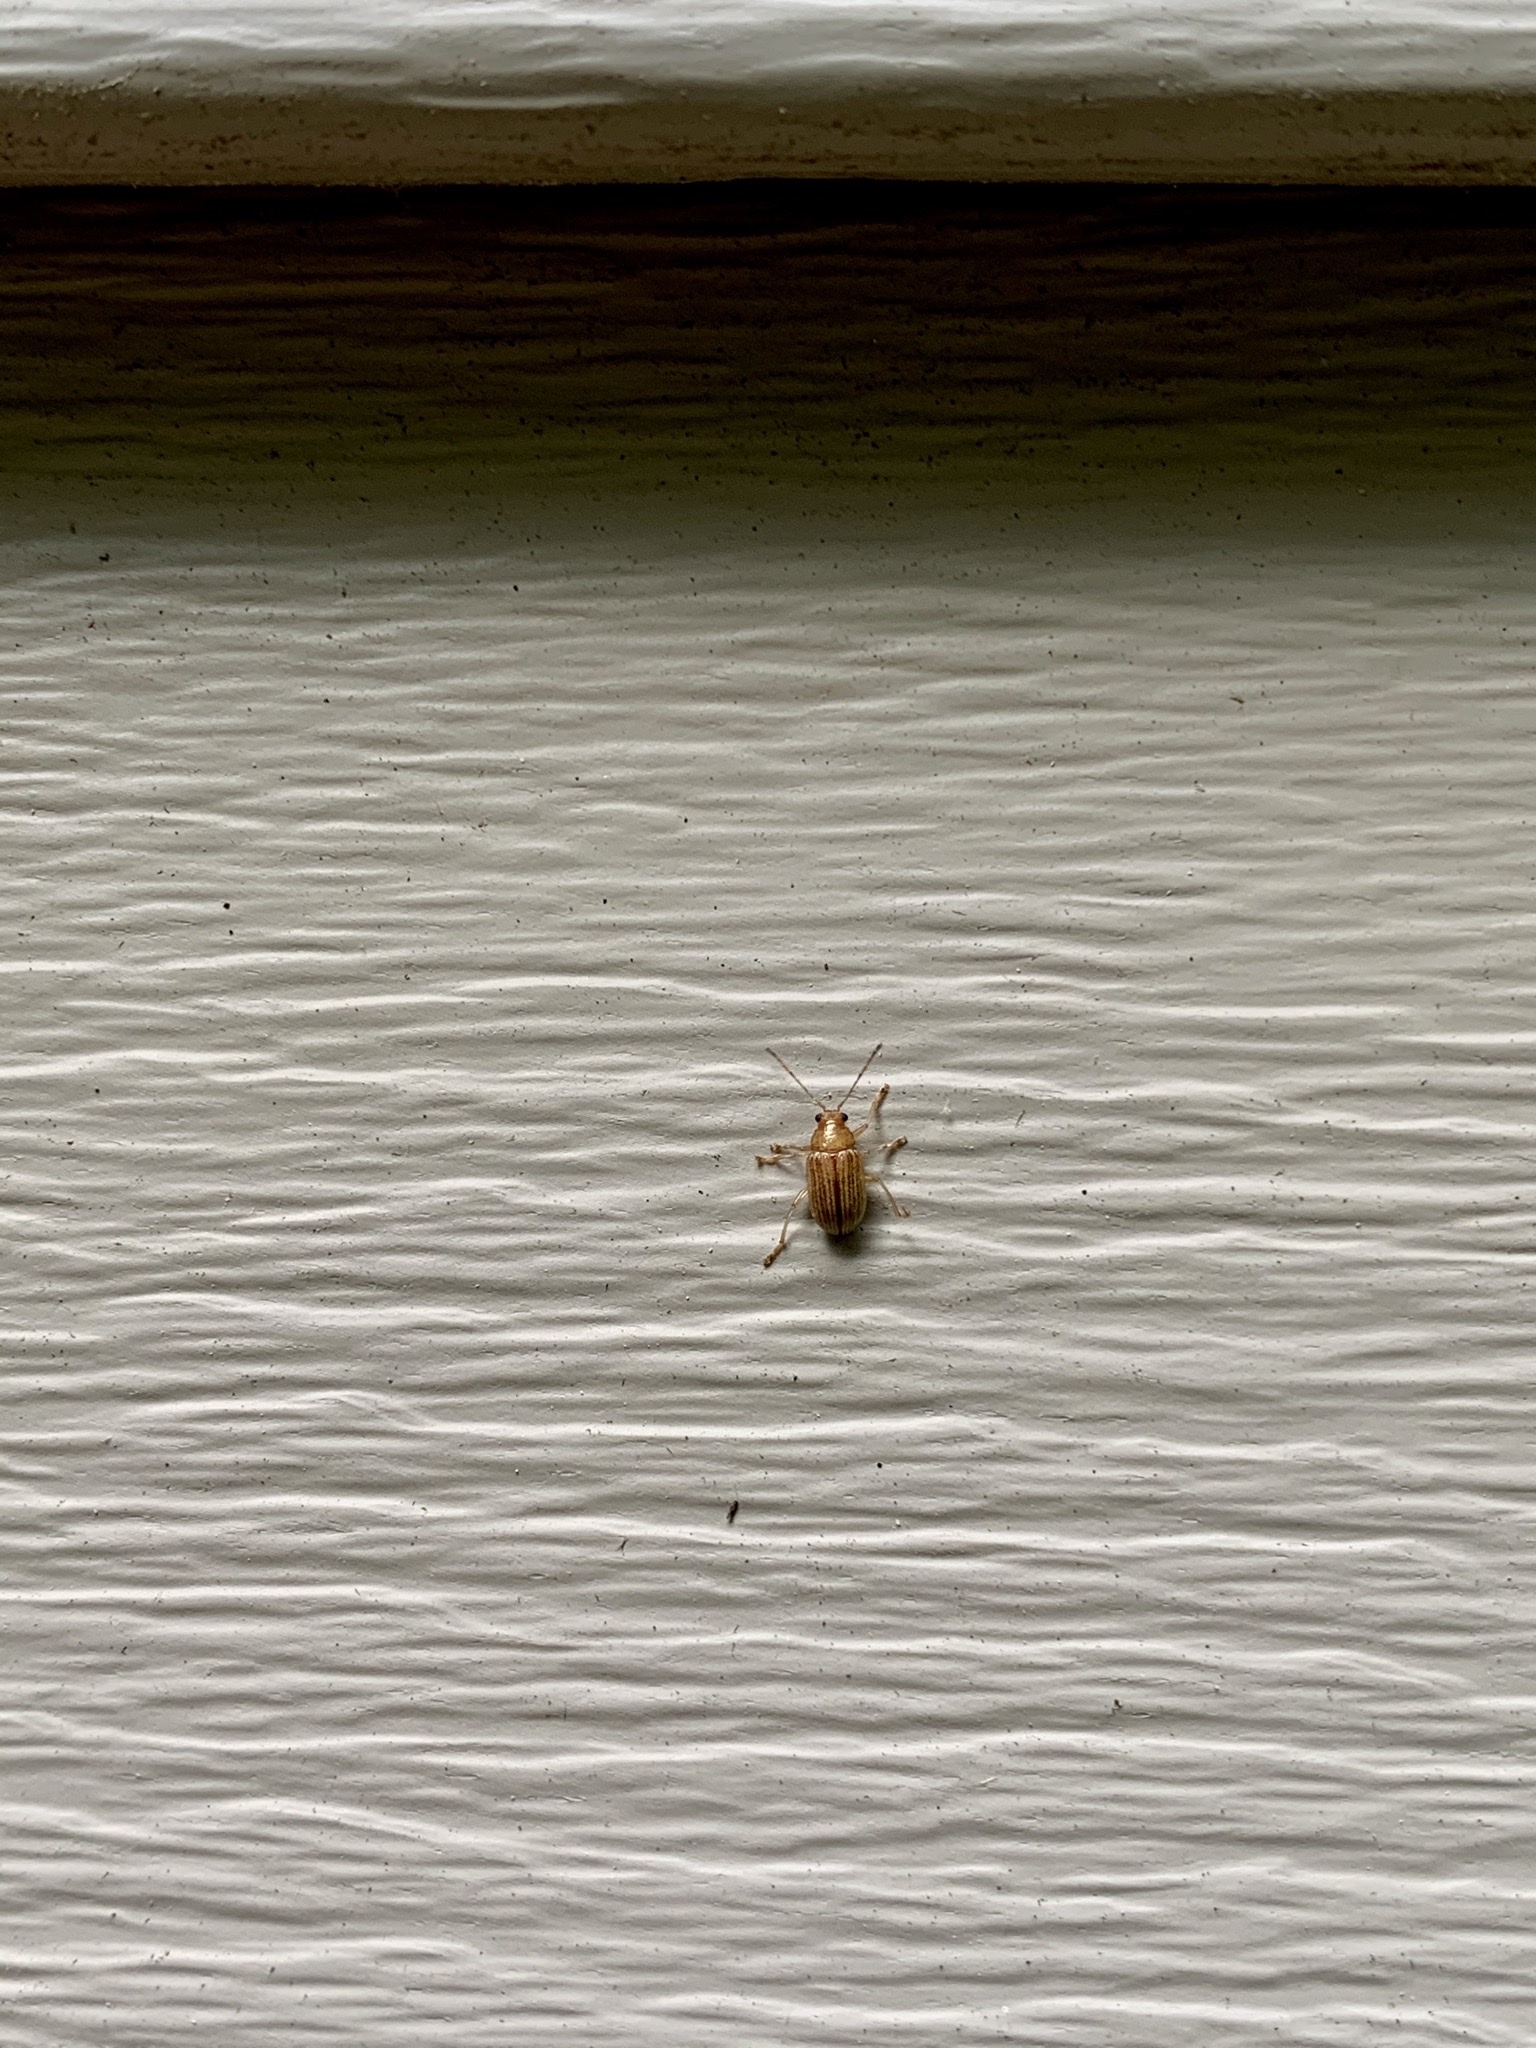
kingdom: Animalia
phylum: Arthropoda
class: Insecta
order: Coleoptera
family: Chrysomelidae
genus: Colaspis
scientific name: Colaspis brunnea
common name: Grape colaspis
